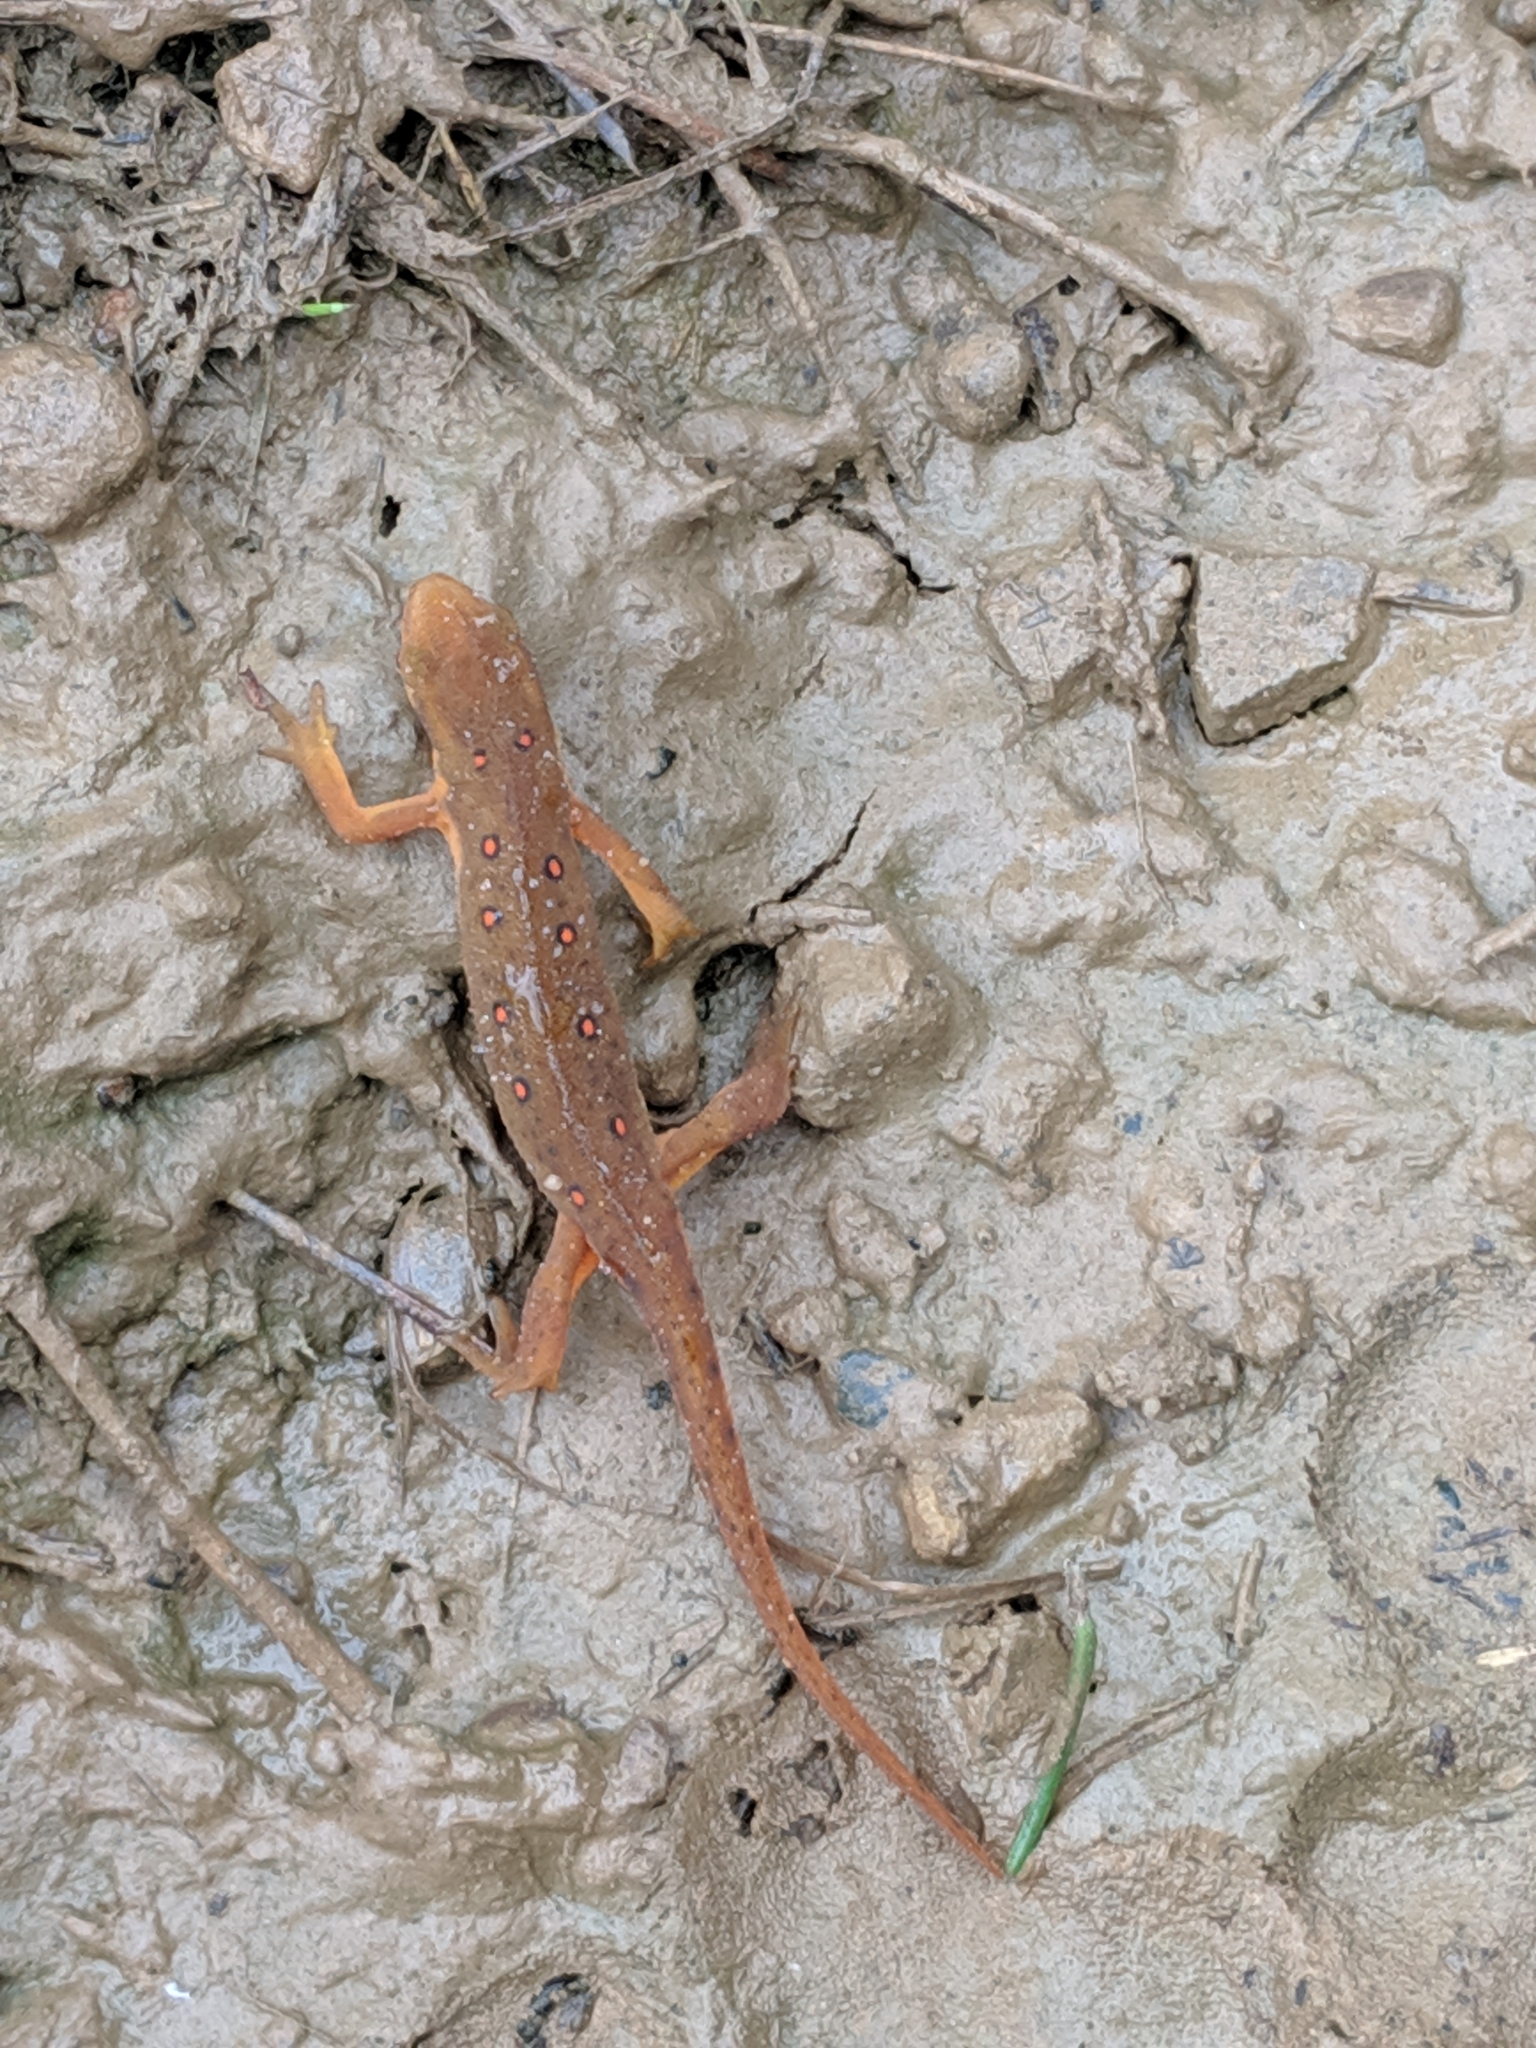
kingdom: Animalia
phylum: Chordata
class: Amphibia
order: Caudata
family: Salamandridae
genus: Notophthalmus
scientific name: Notophthalmus viridescens
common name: Eastern newt
